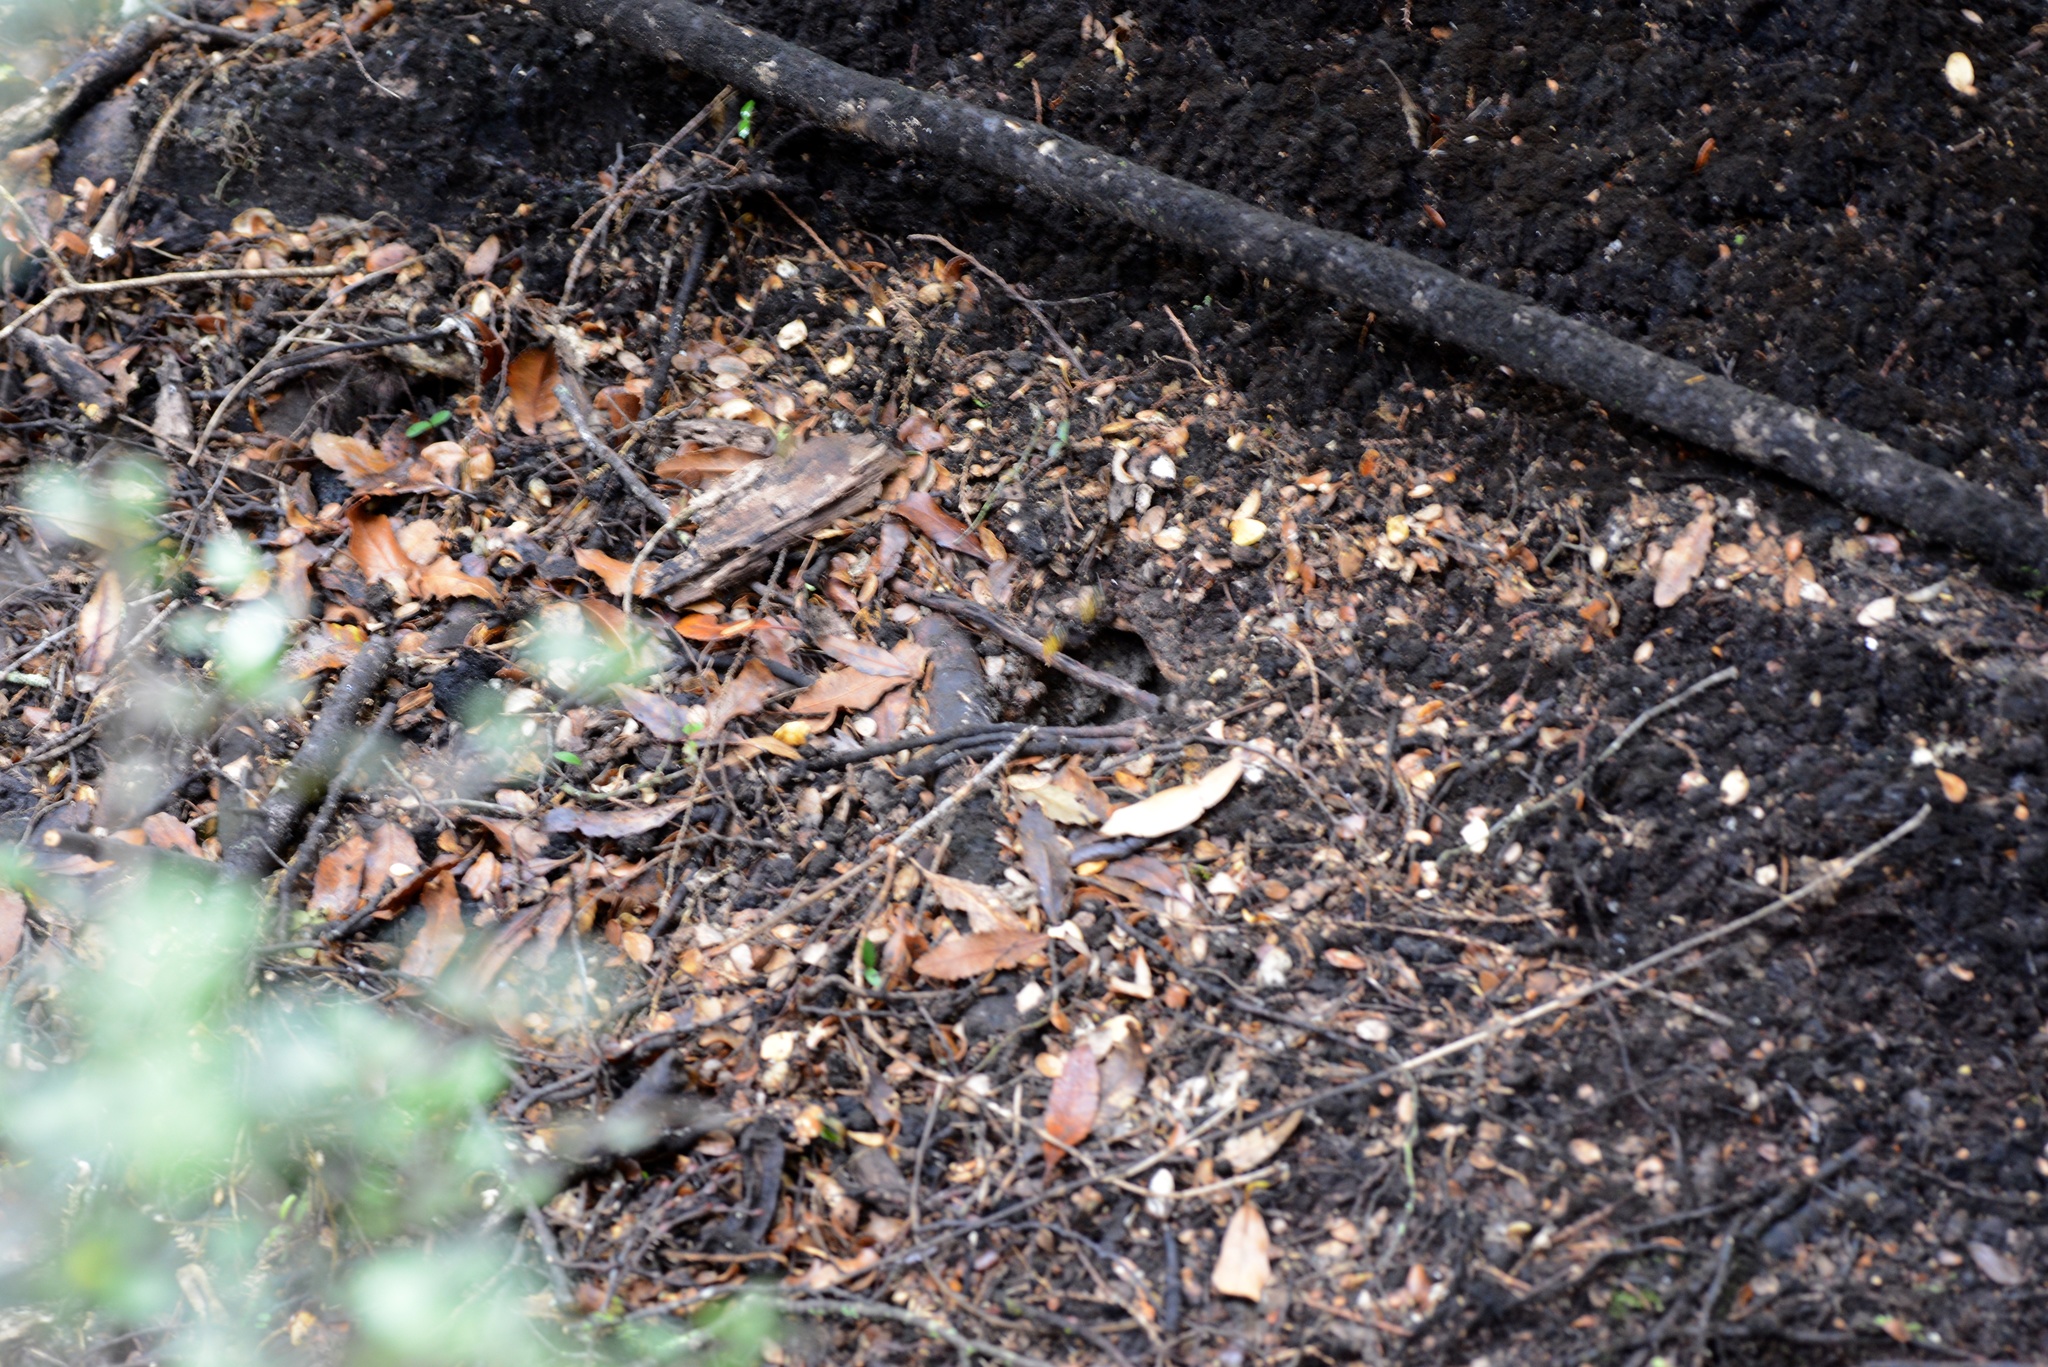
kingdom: Animalia
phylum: Arthropoda
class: Insecta
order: Hymenoptera
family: Vespidae
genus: Vespula
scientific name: Vespula
